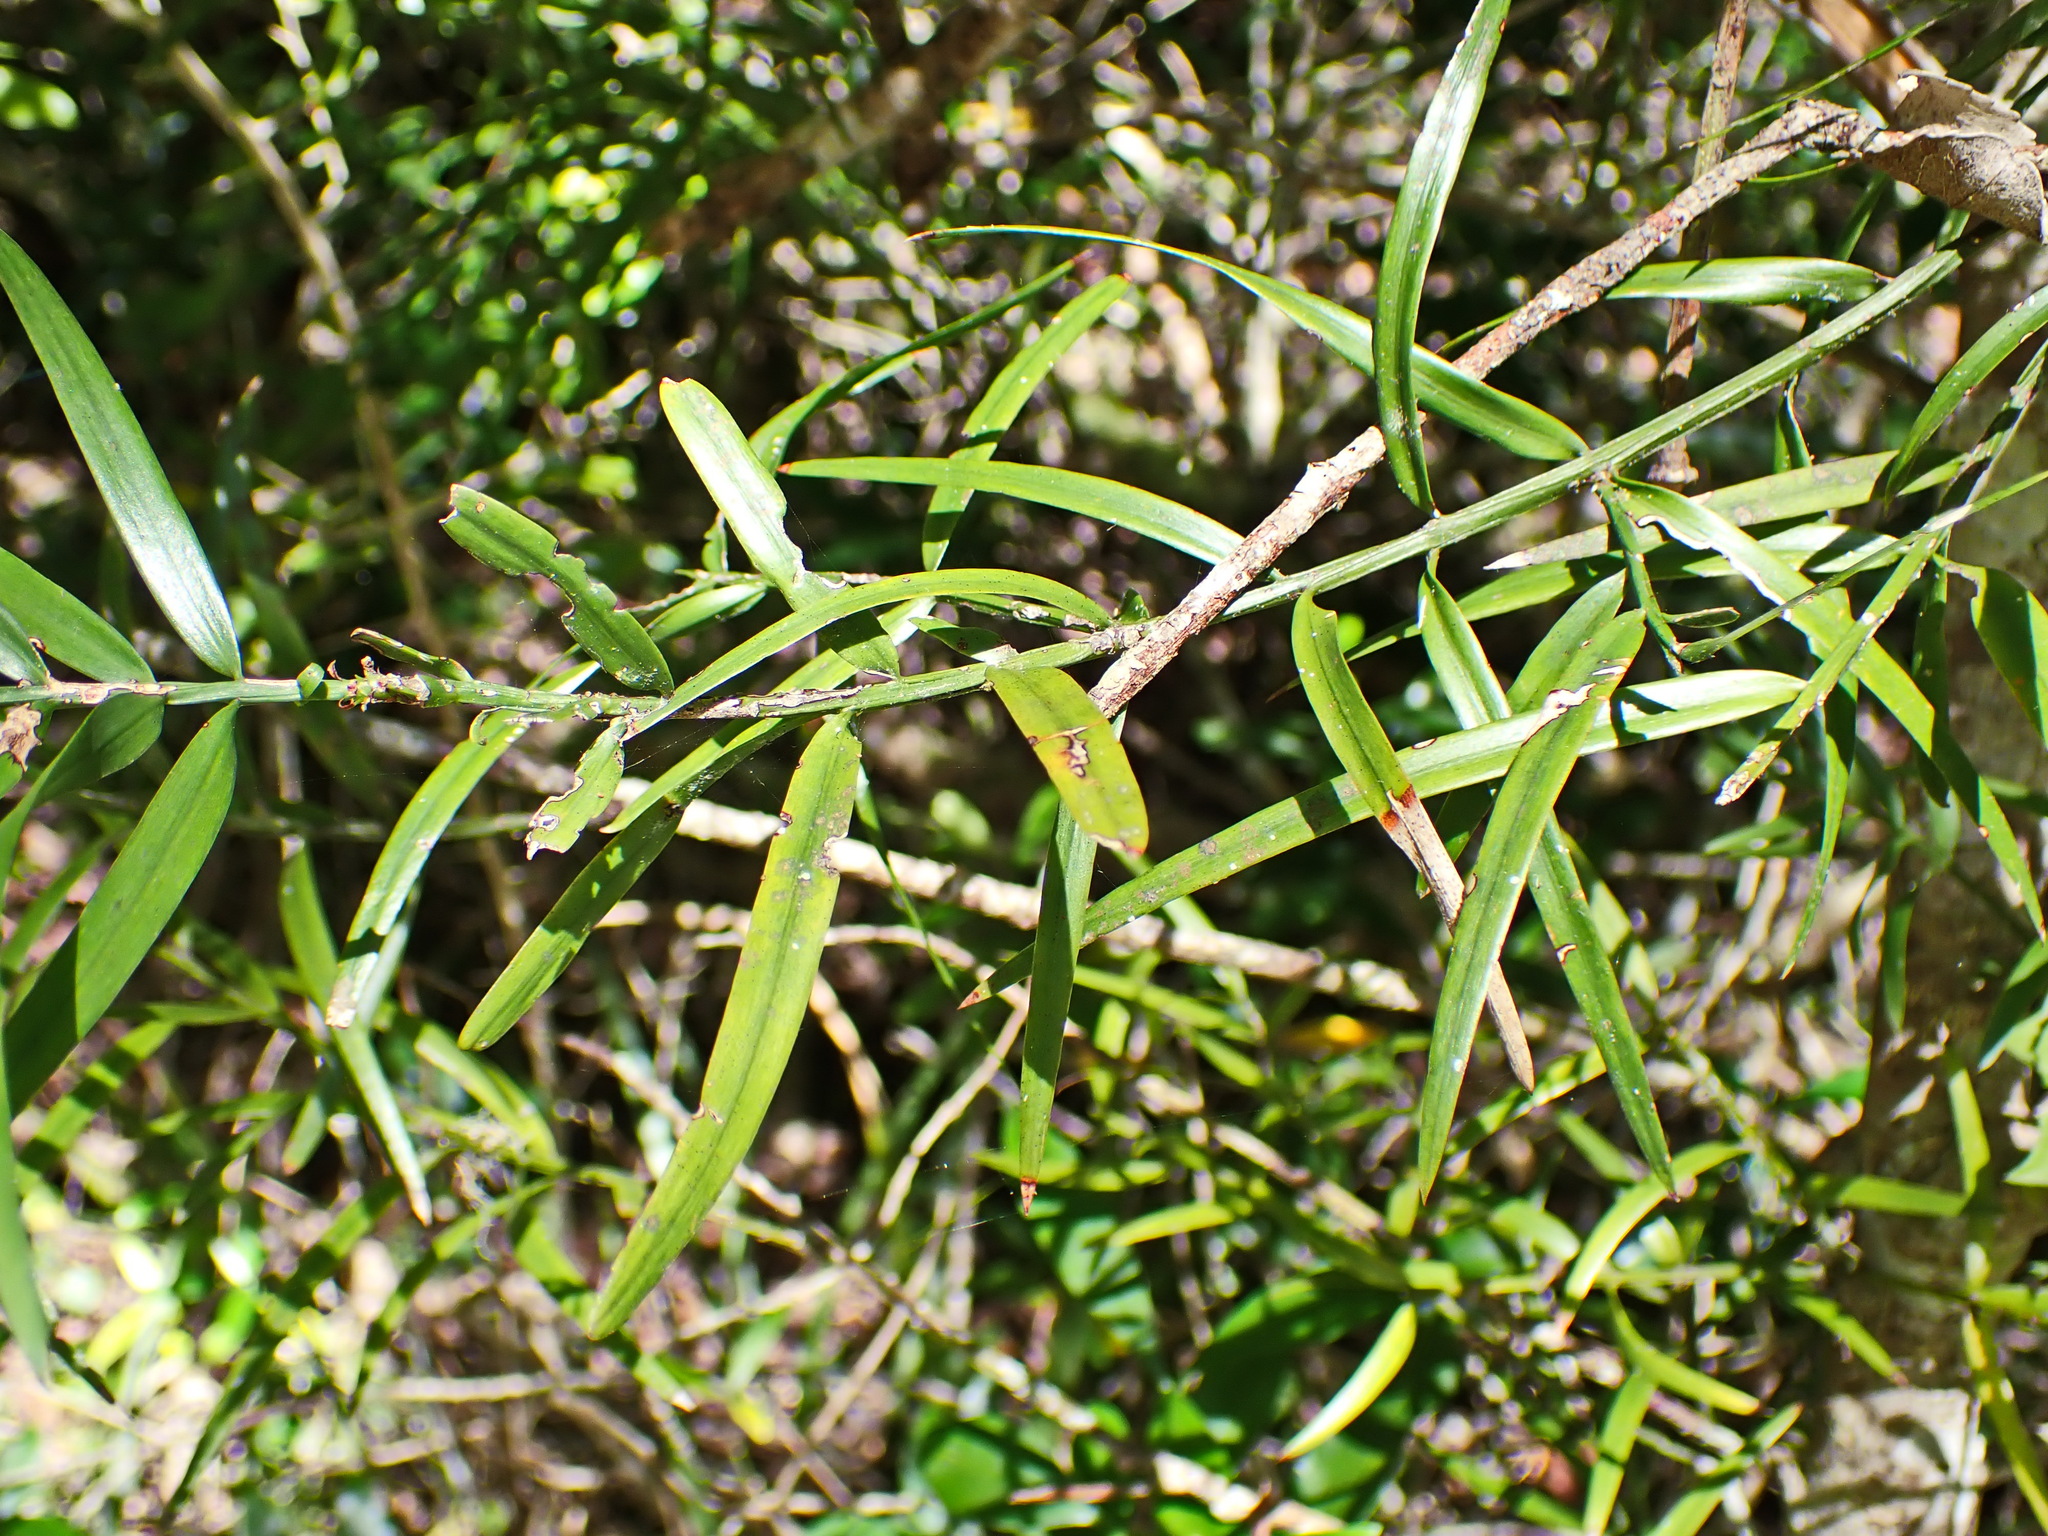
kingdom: Plantae
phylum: Tracheophyta
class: Pinopsida
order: Pinales
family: Podocarpaceae
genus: Afrocarpus
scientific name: Afrocarpus falcatus
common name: Bastard yellowwood
